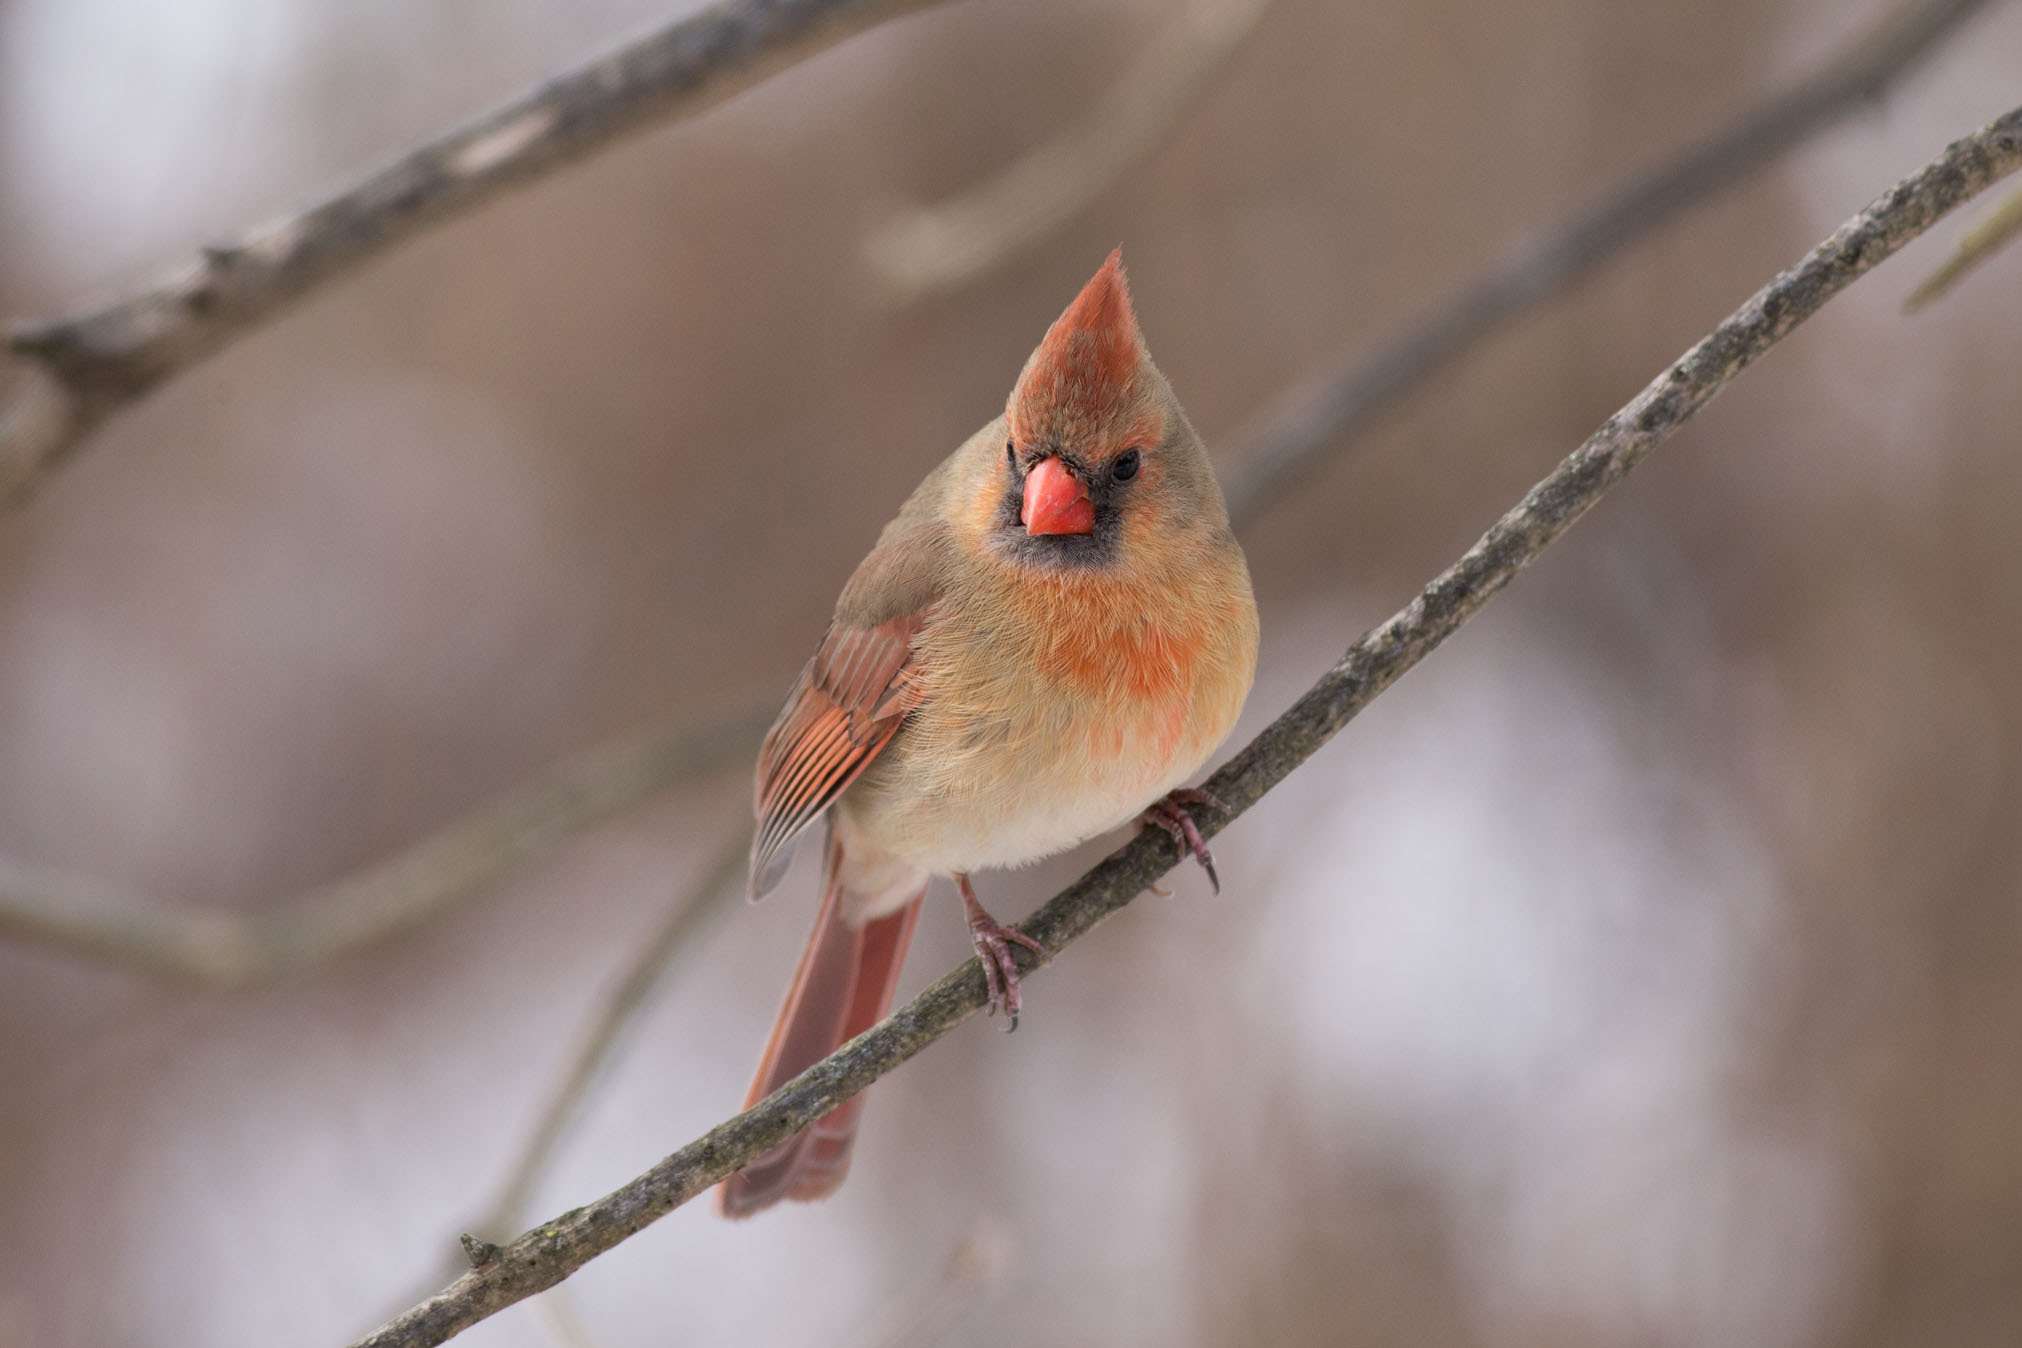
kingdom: Animalia
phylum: Chordata
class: Aves
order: Passeriformes
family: Cardinalidae
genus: Cardinalis
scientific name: Cardinalis cardinalis
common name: Northern cardinal
